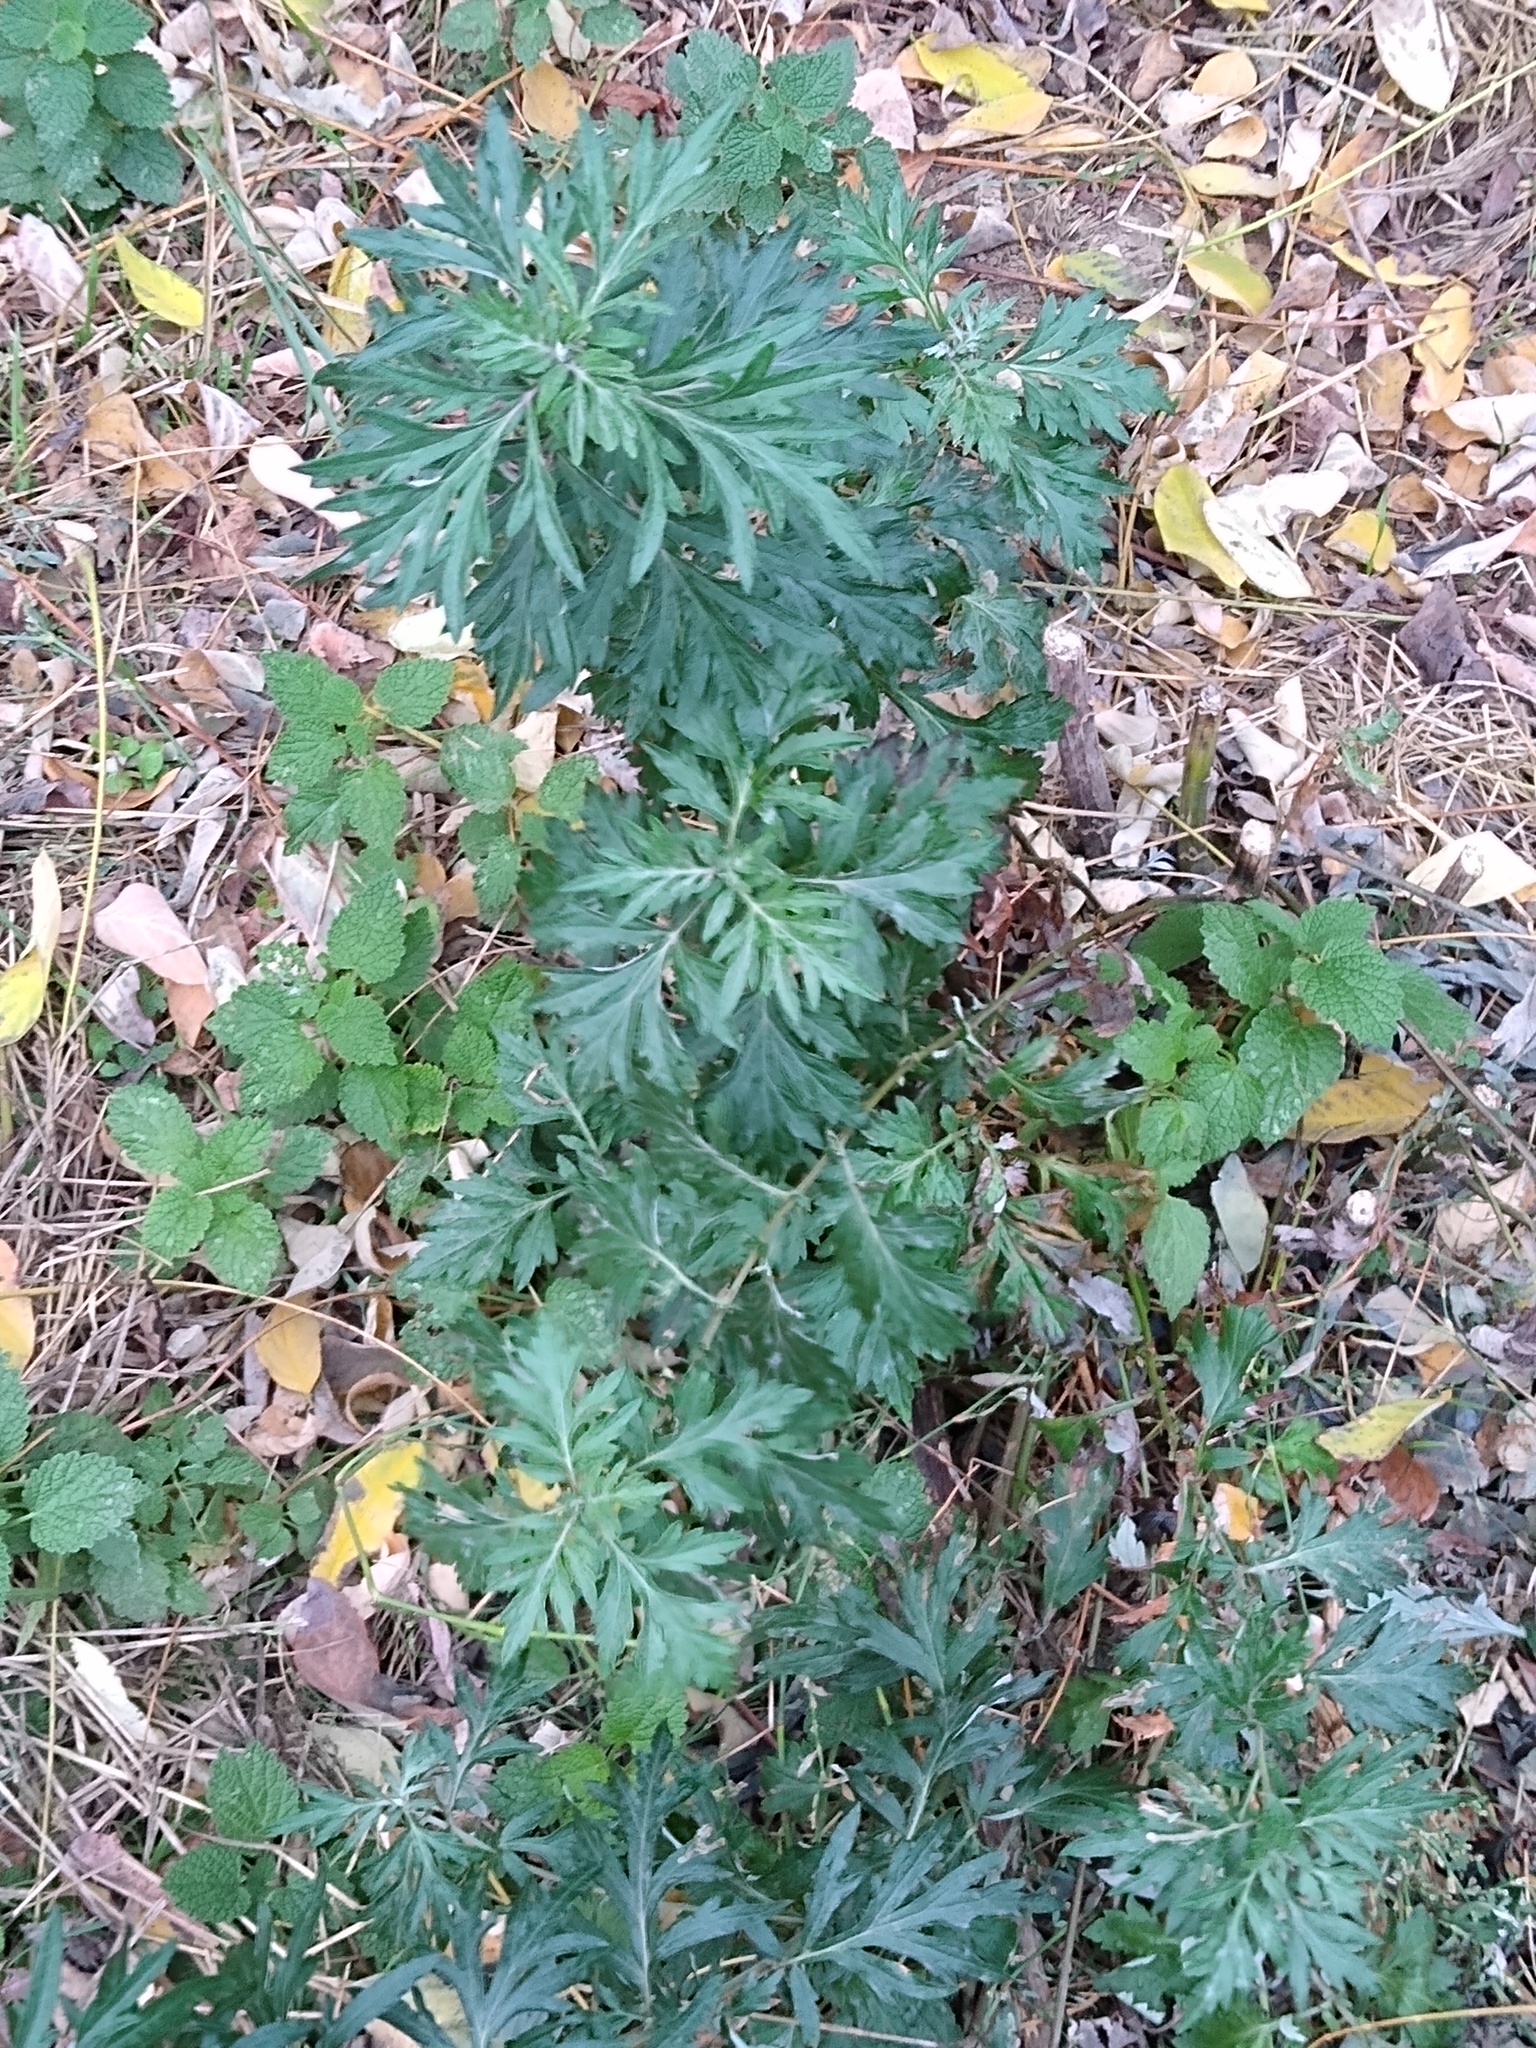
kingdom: Plantae
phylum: Tracheophyta
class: Magnoliopsida
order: Asterales
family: Asteraceae
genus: Artemisia
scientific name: Artemisia vulgaris
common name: Mugwort
